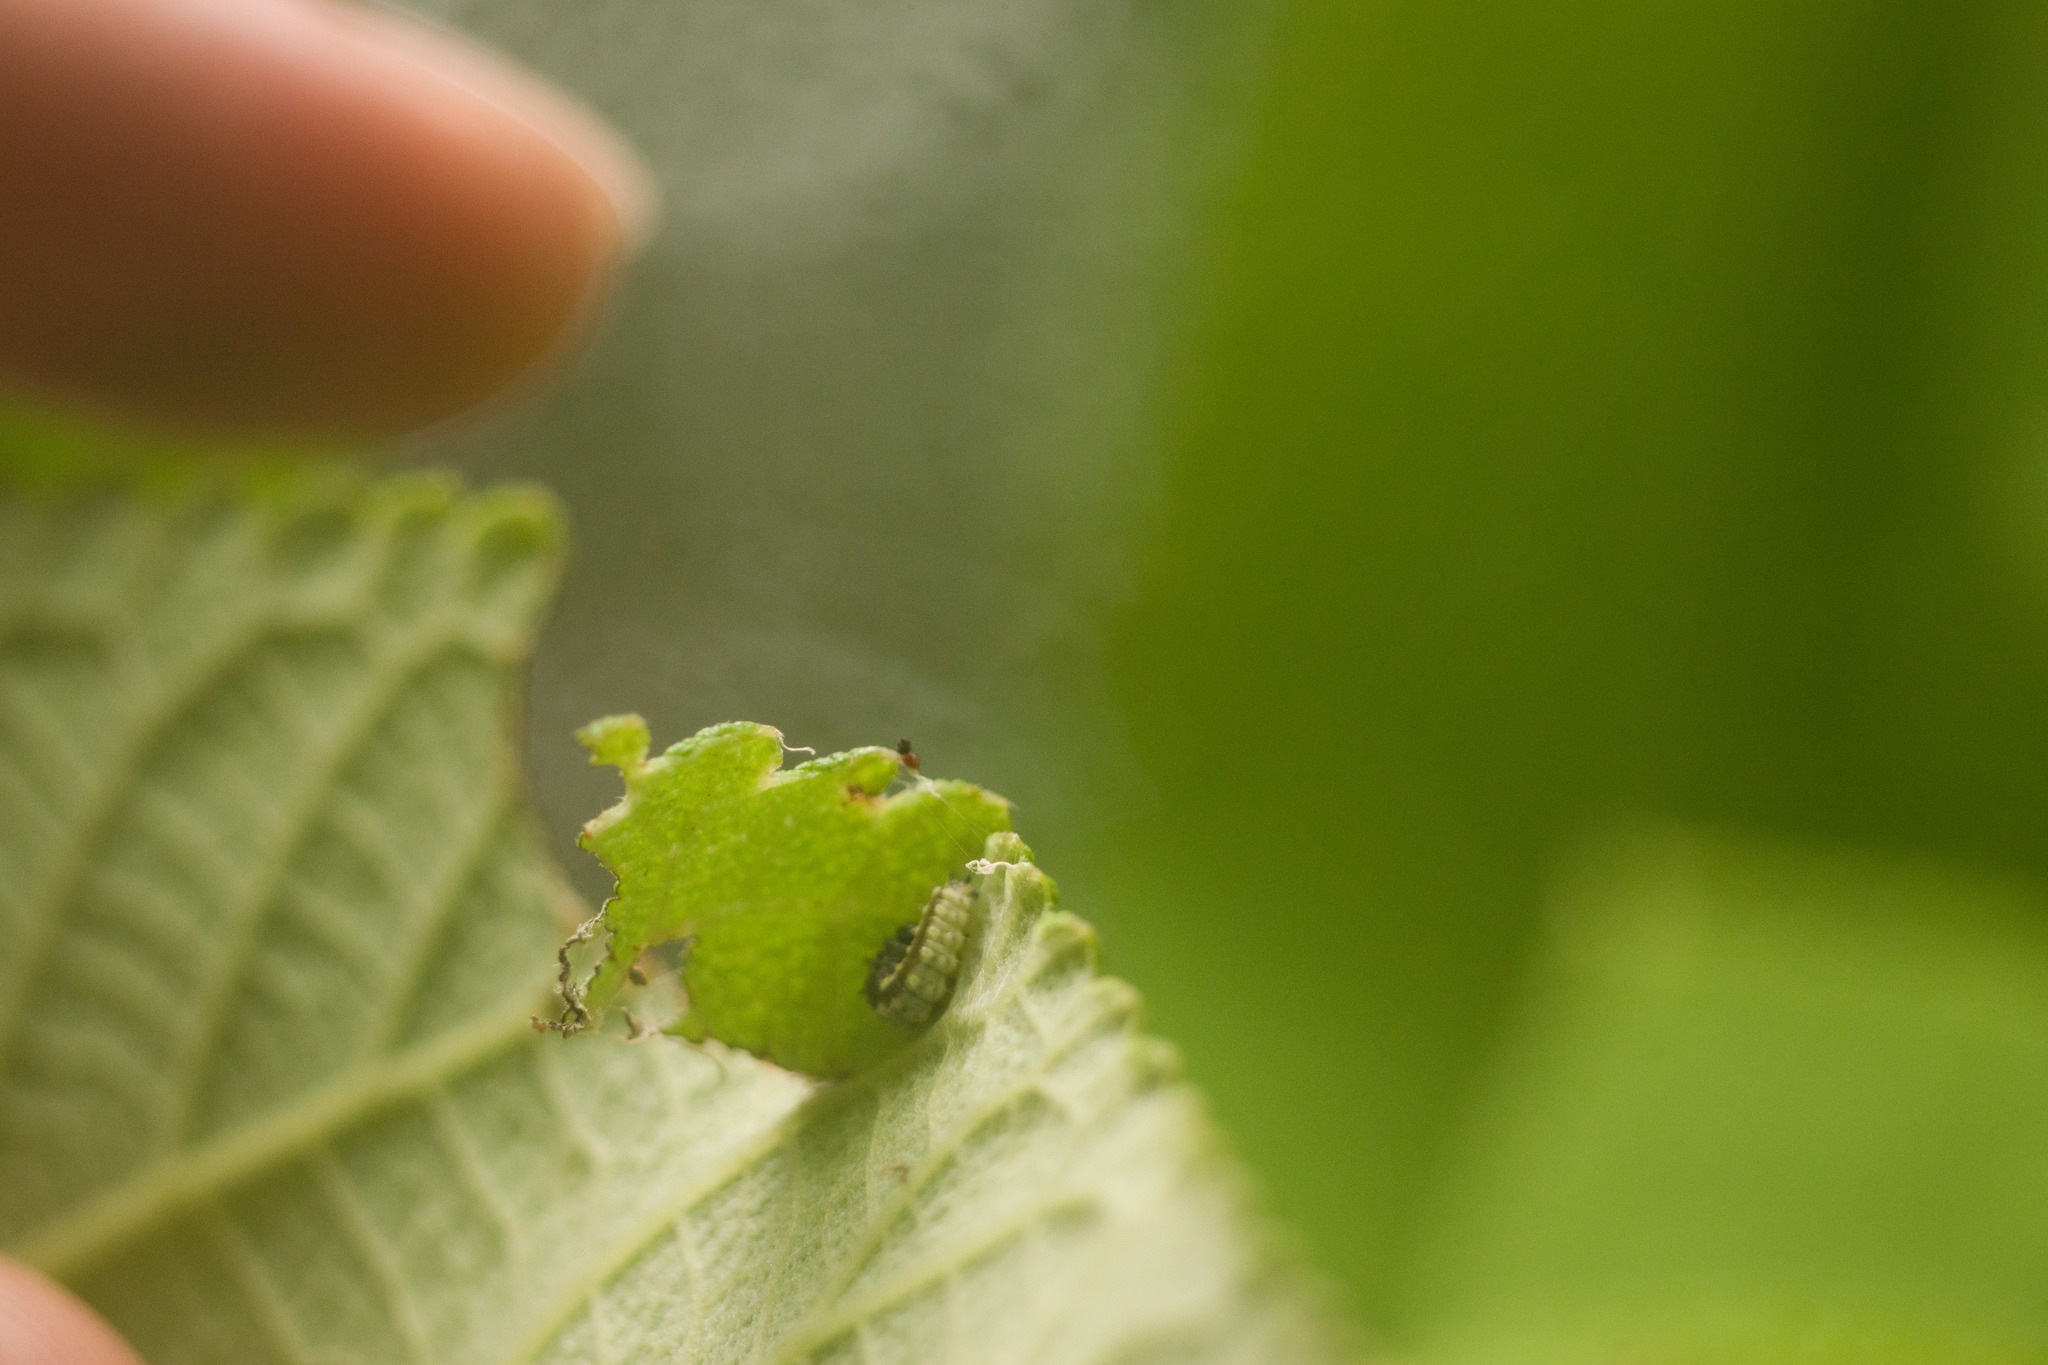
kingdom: Animalia
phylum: Arthropoda
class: Insecta
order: Lepidoptera
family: Nymphalidae
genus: Vanessa
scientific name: Vanessa tameamea
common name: Kamehameha lady
